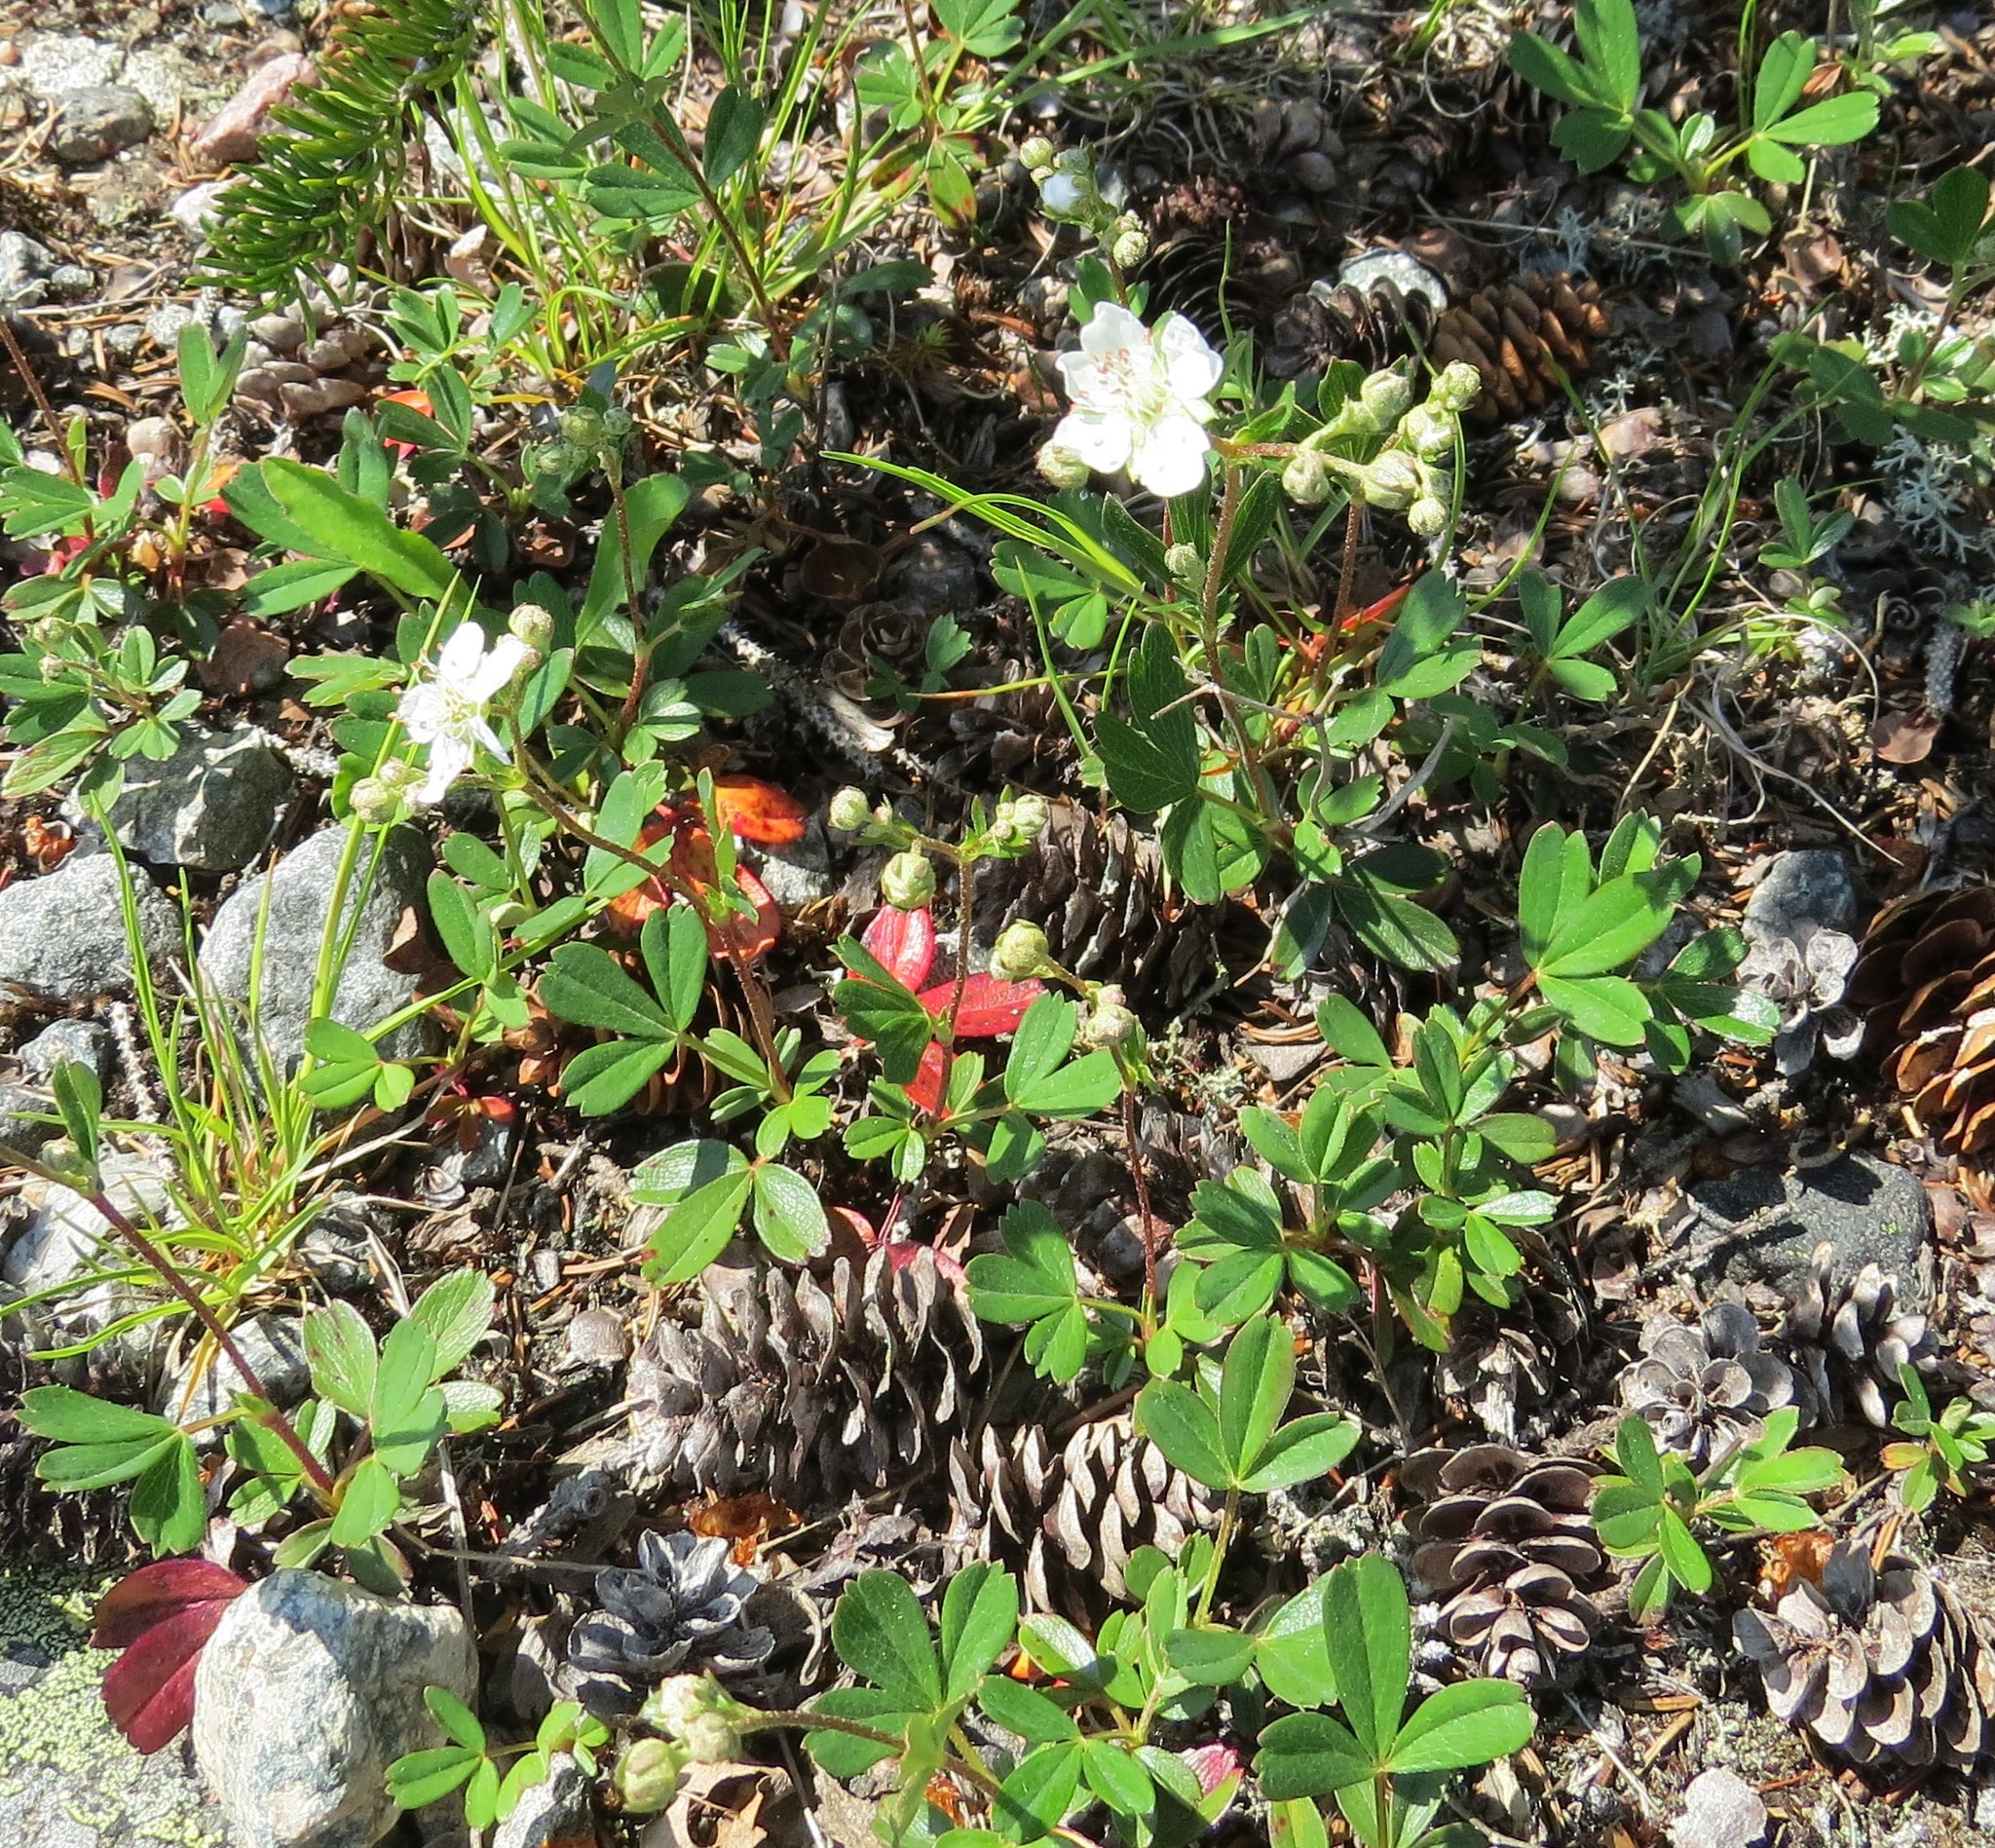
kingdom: Plantae
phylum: Tracheophyta
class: Magnoliopsida
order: Rosales
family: Rosaceae
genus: Sibbaldia
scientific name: Sibbaldia tridentata
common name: Three-toothed cinquefoil
